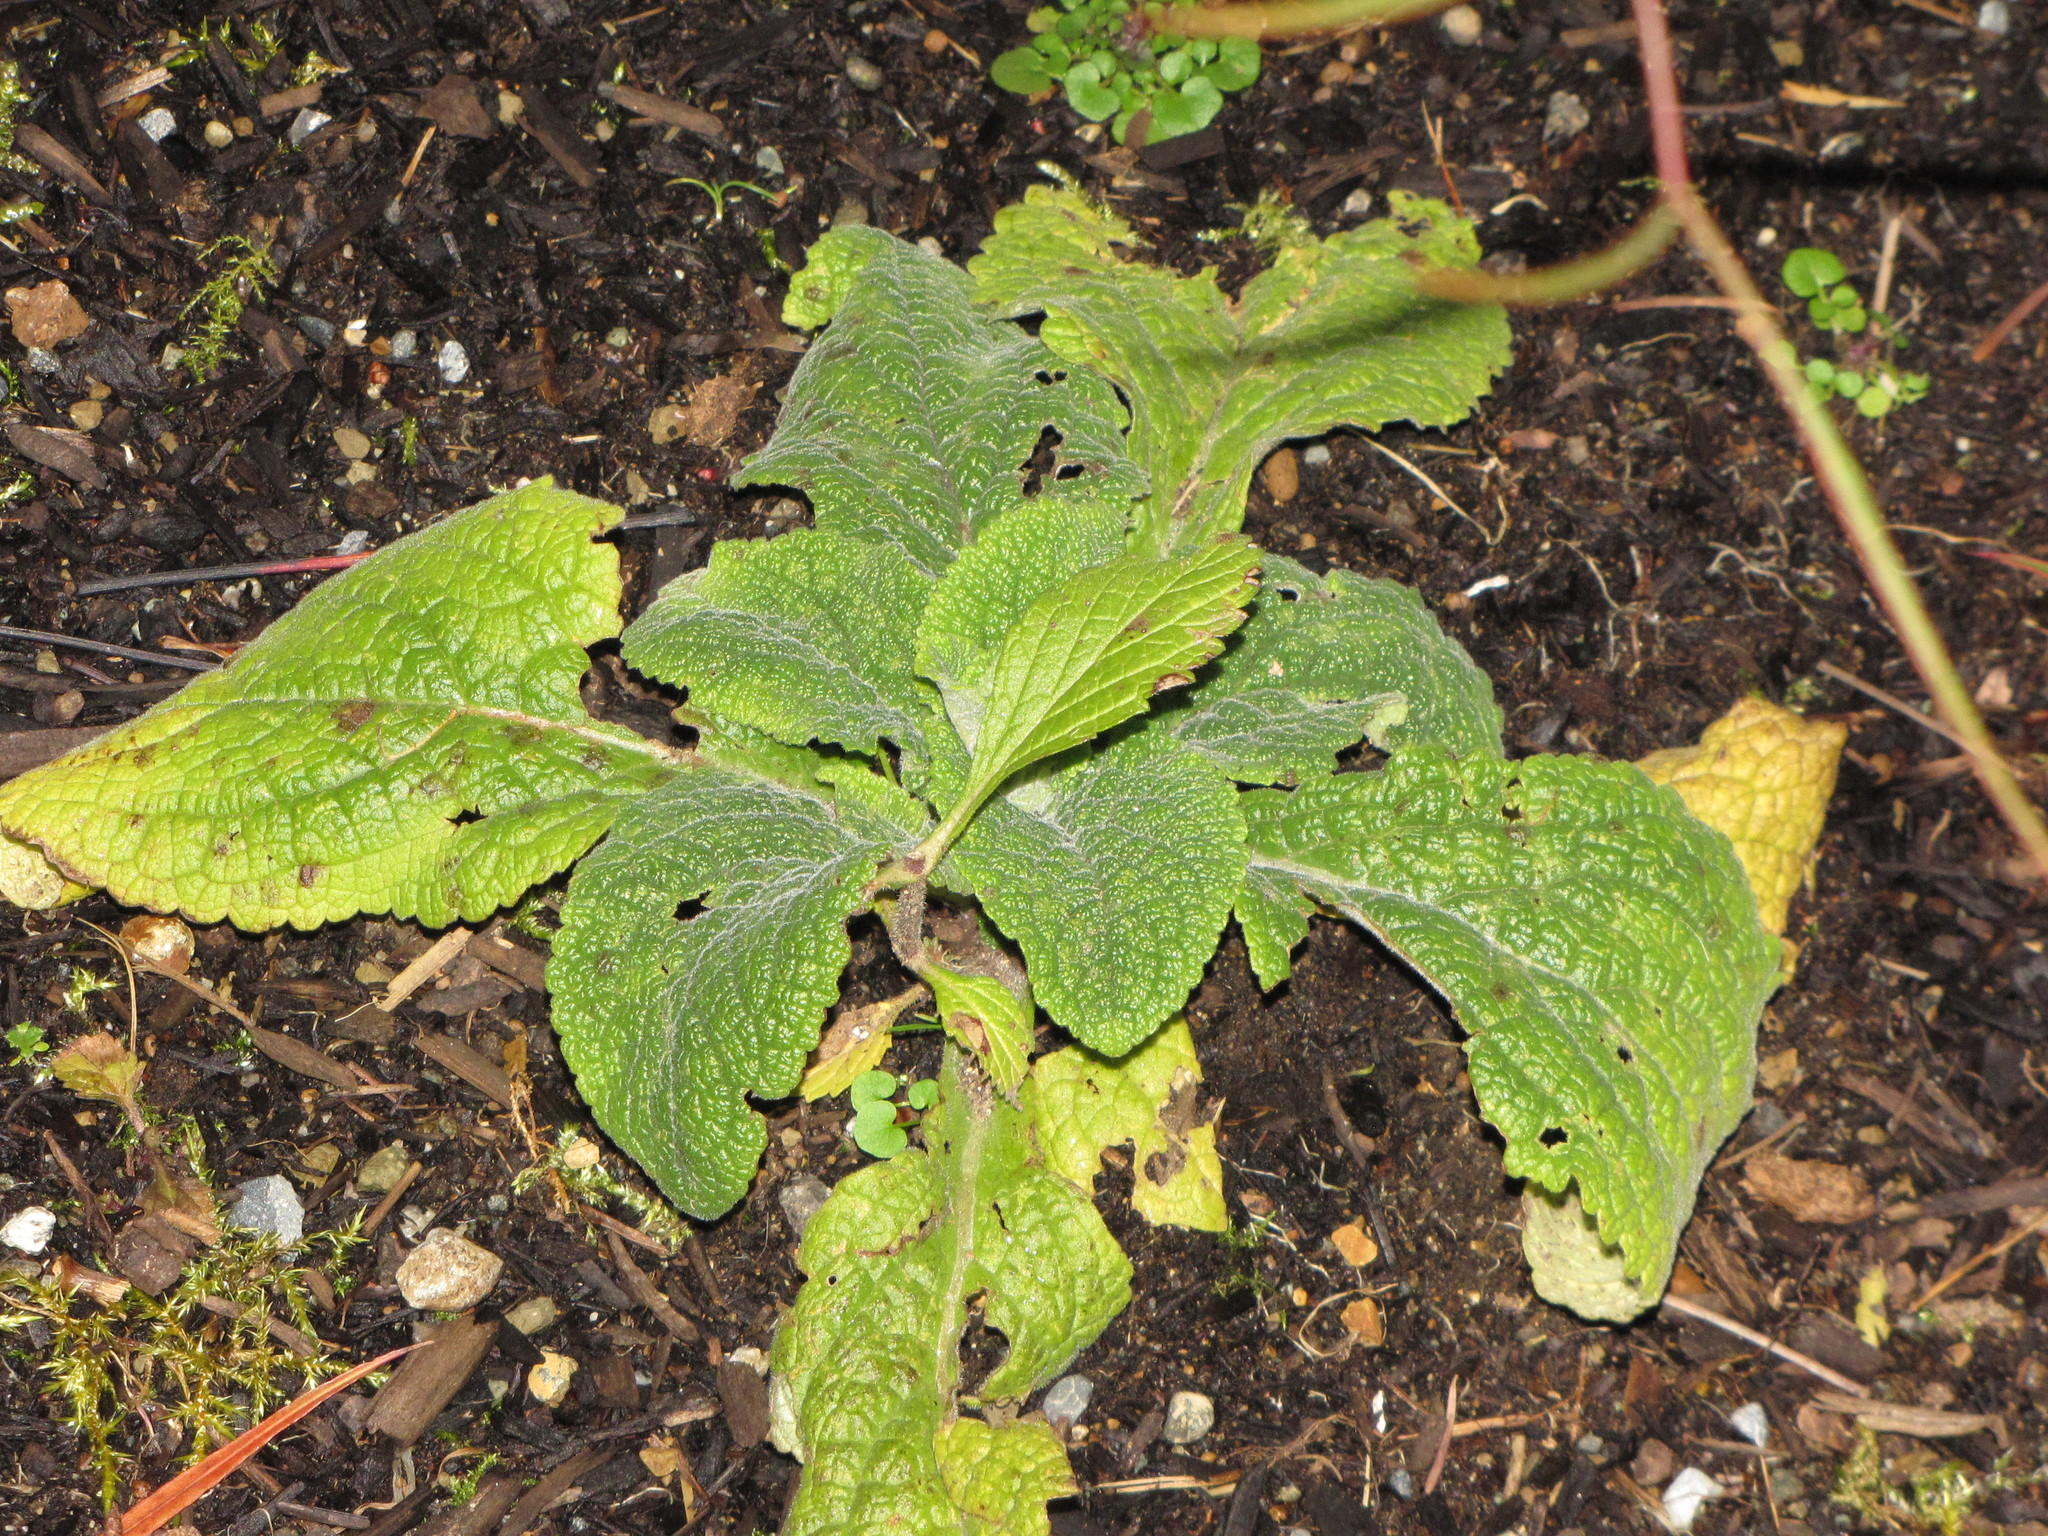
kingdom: Plantae
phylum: Tracheophyta
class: Magnoliopsida
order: Lamiales
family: Plantaginaceae
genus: Digitalis
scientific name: Digitalis purpurea
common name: Foxglove
